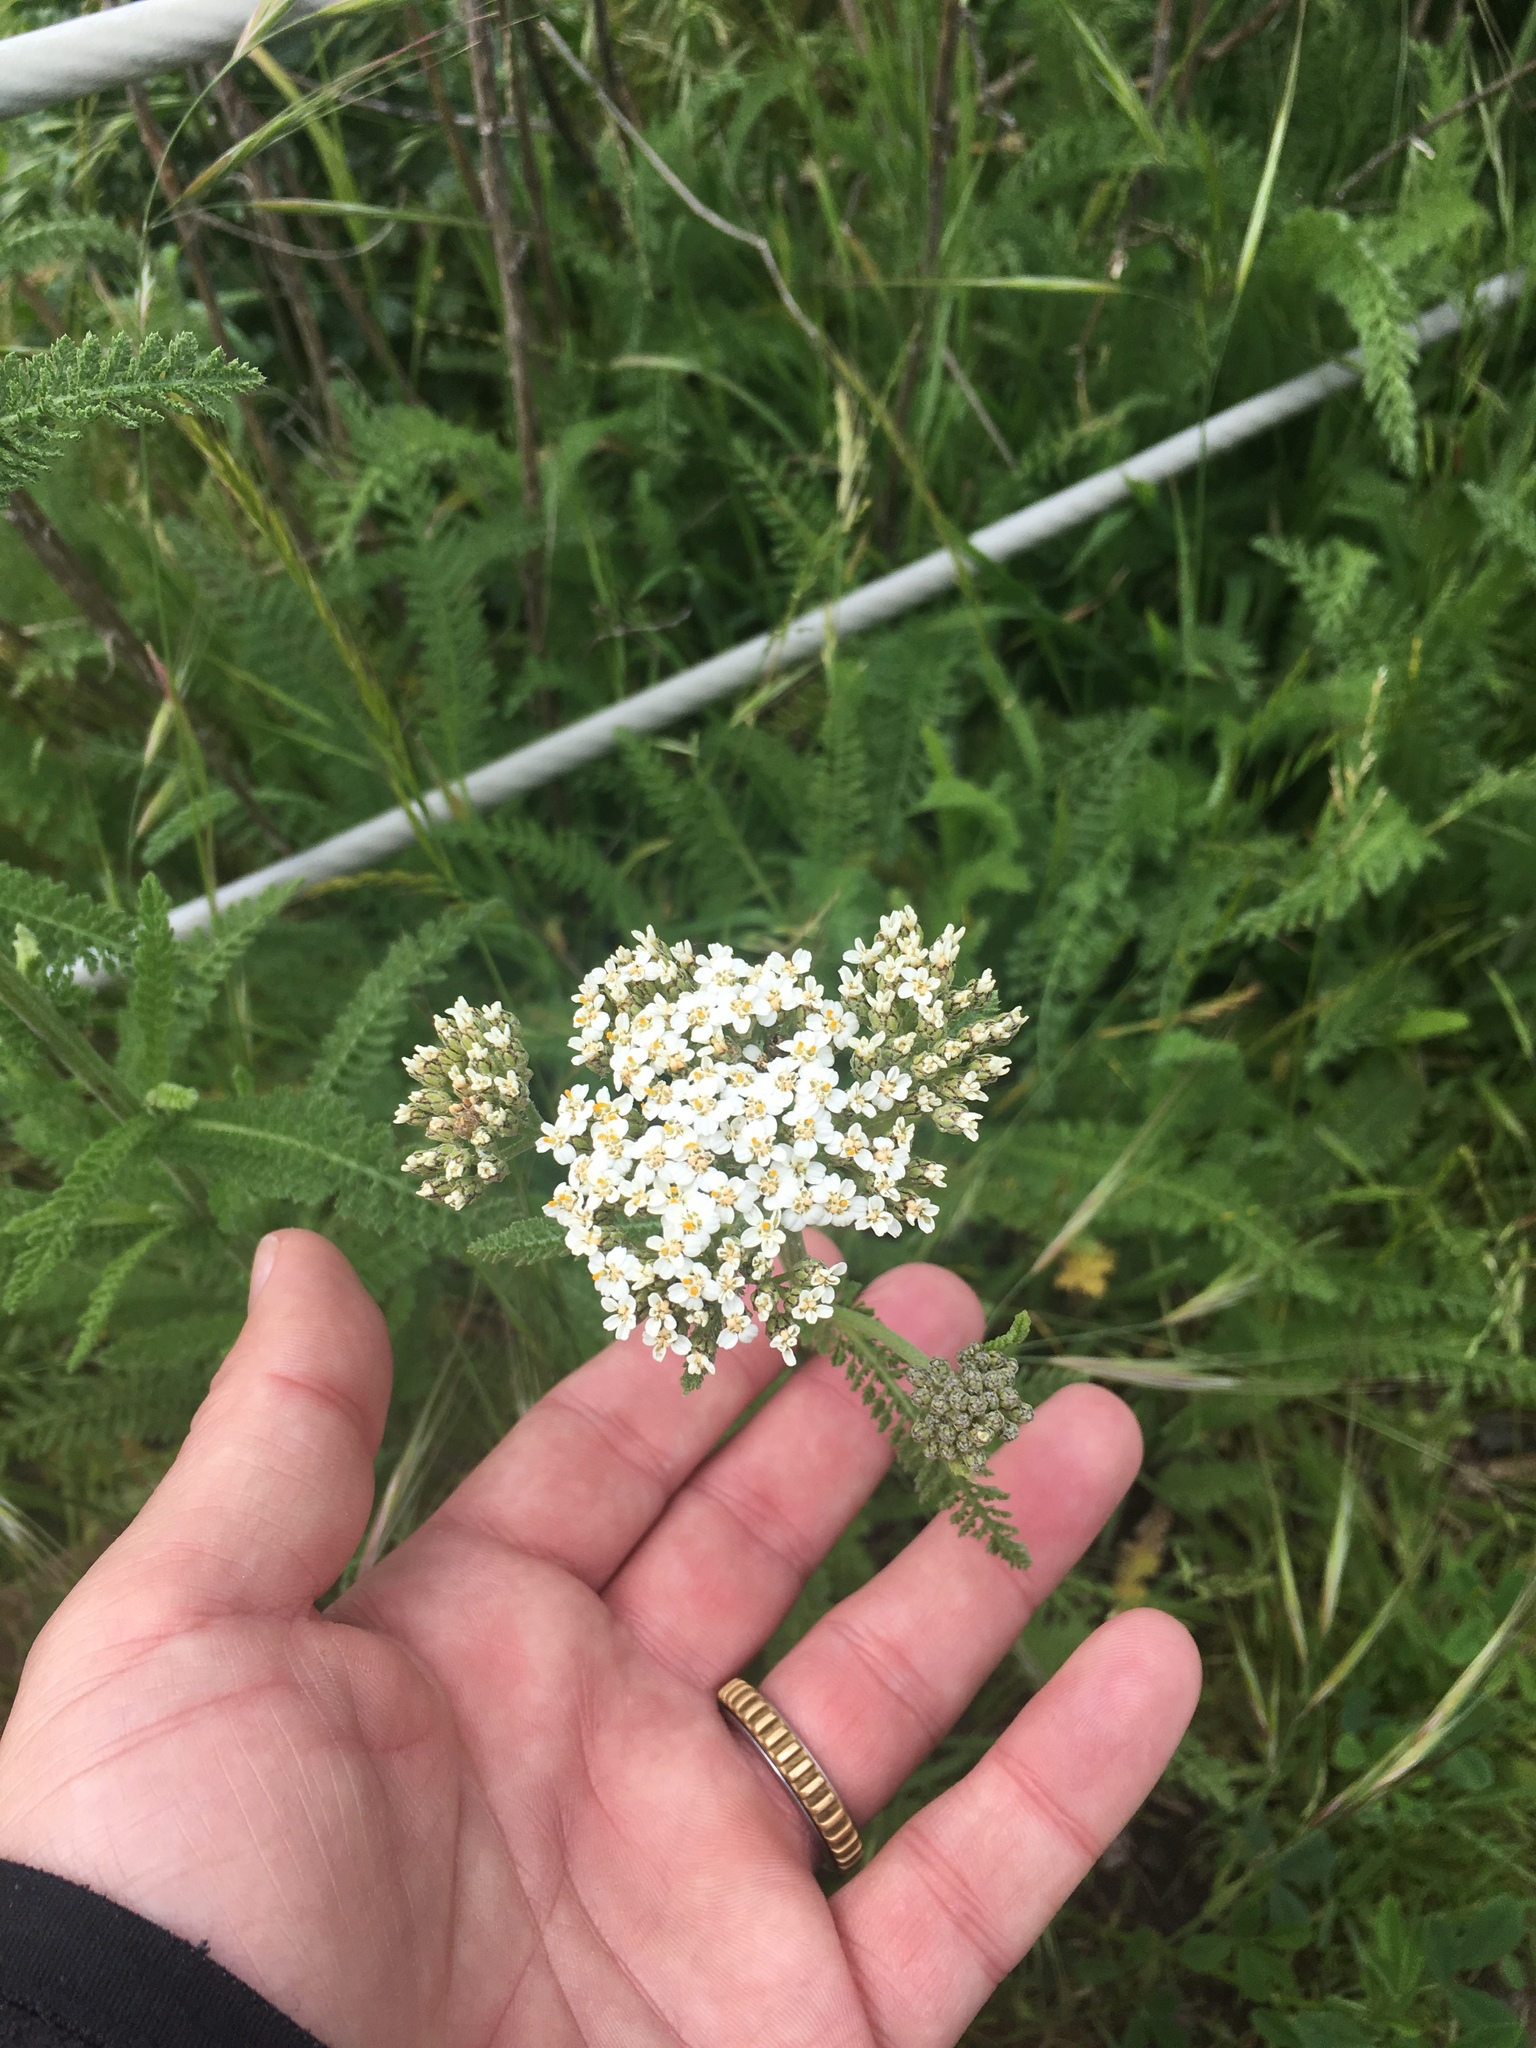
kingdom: Plantae
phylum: Tracheophyta
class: Magnoliopsida
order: Asterales
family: Asteraceae
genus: Achillea
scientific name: Achillea millefolium
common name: Yarrow
